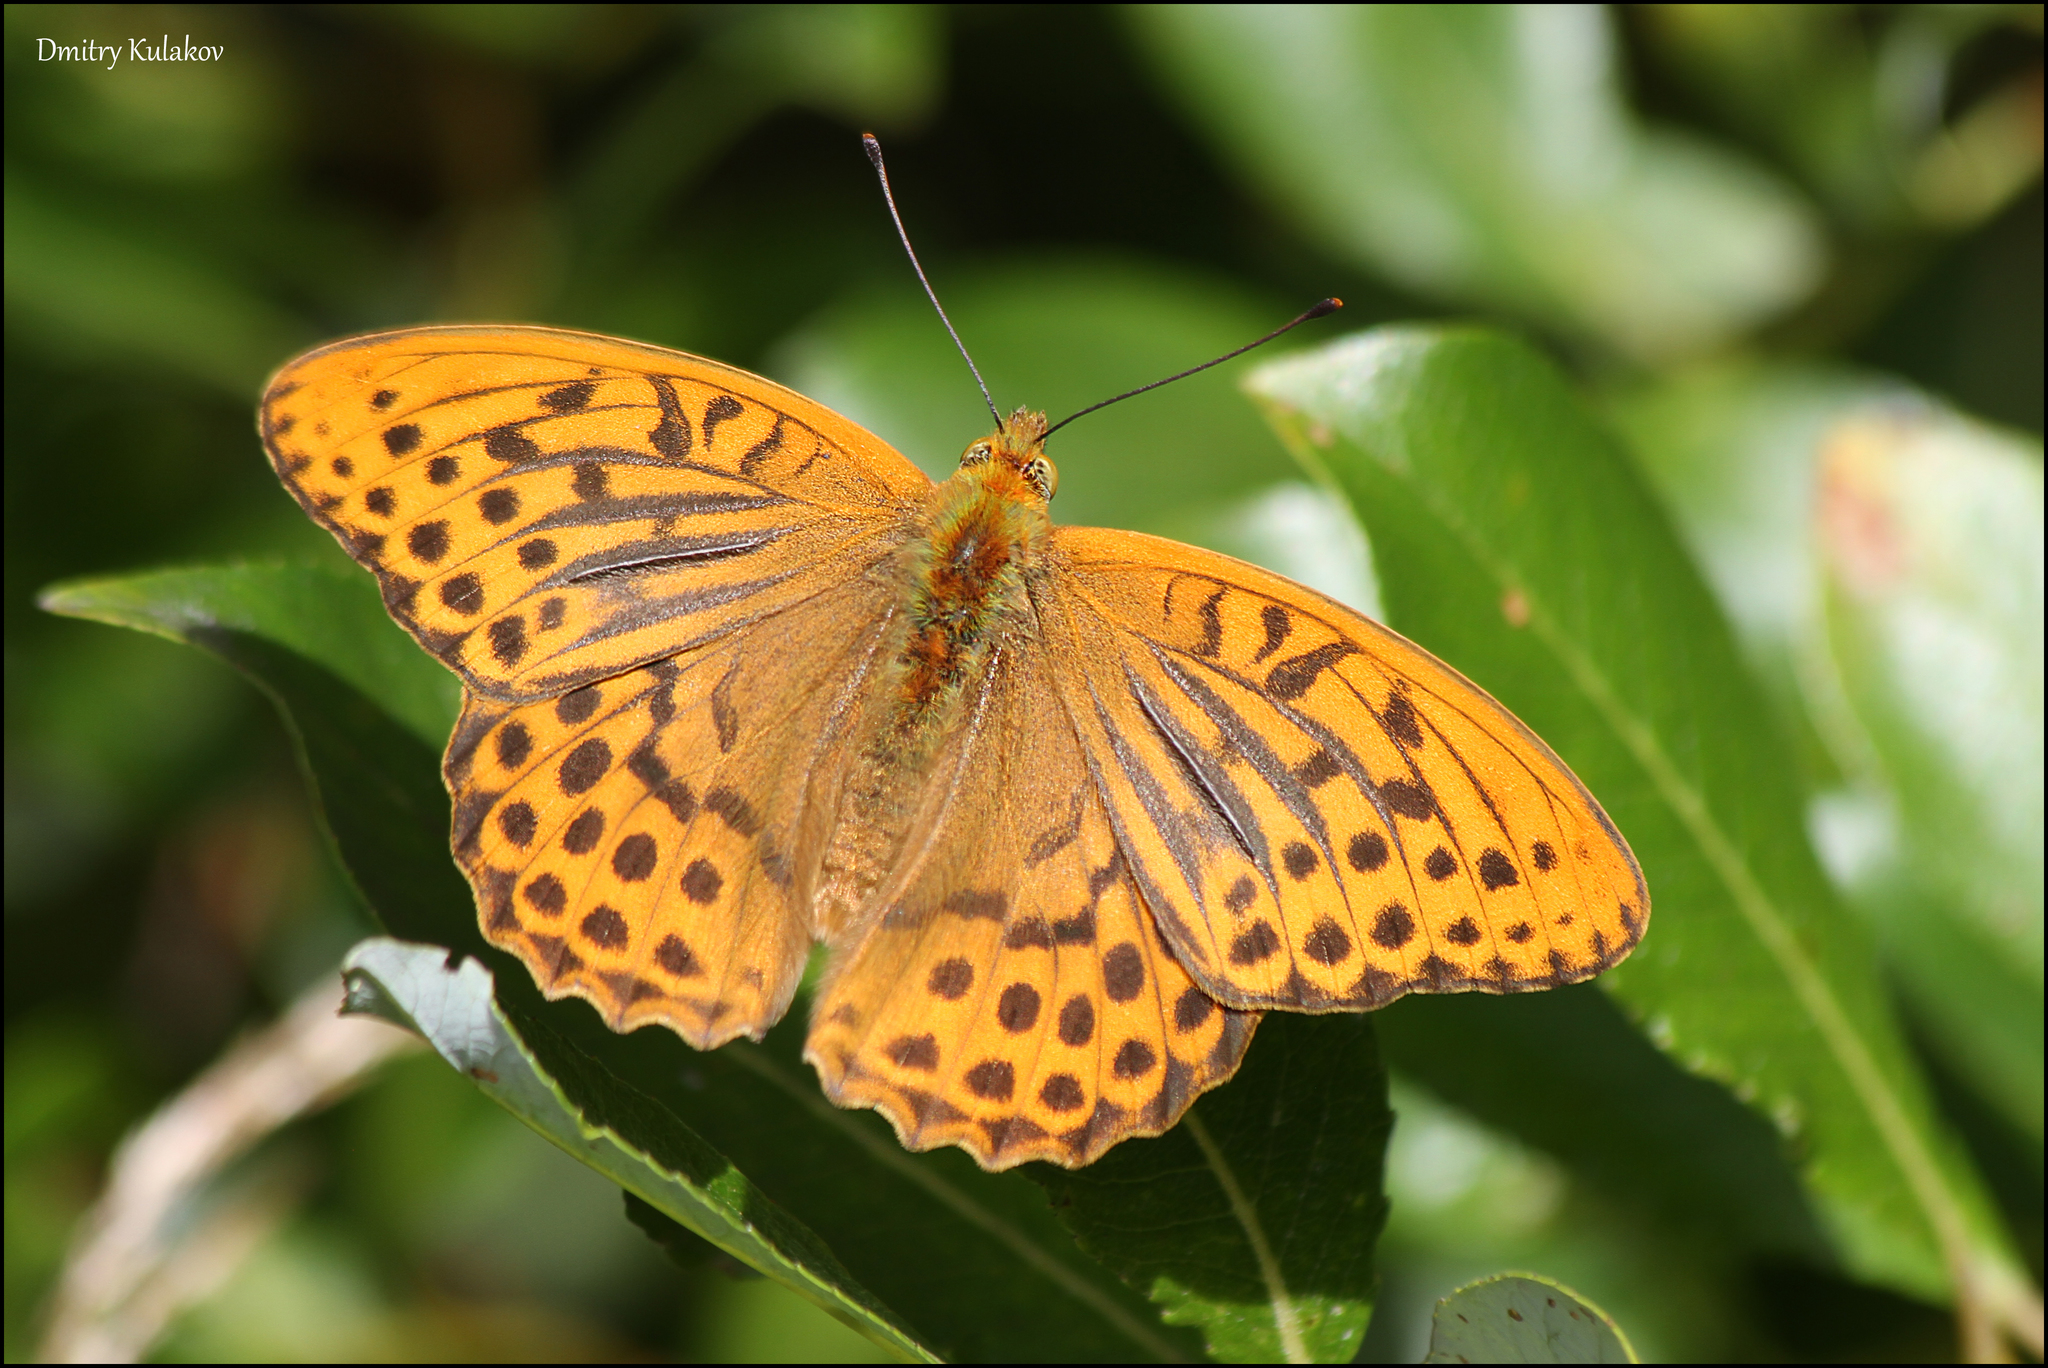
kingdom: Animalia
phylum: Arthropoda
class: Insecta
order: Lepidoptera
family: Nymphalidae
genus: Argynnis
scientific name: Argynnis paphia
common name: Silver-washed fritillary
